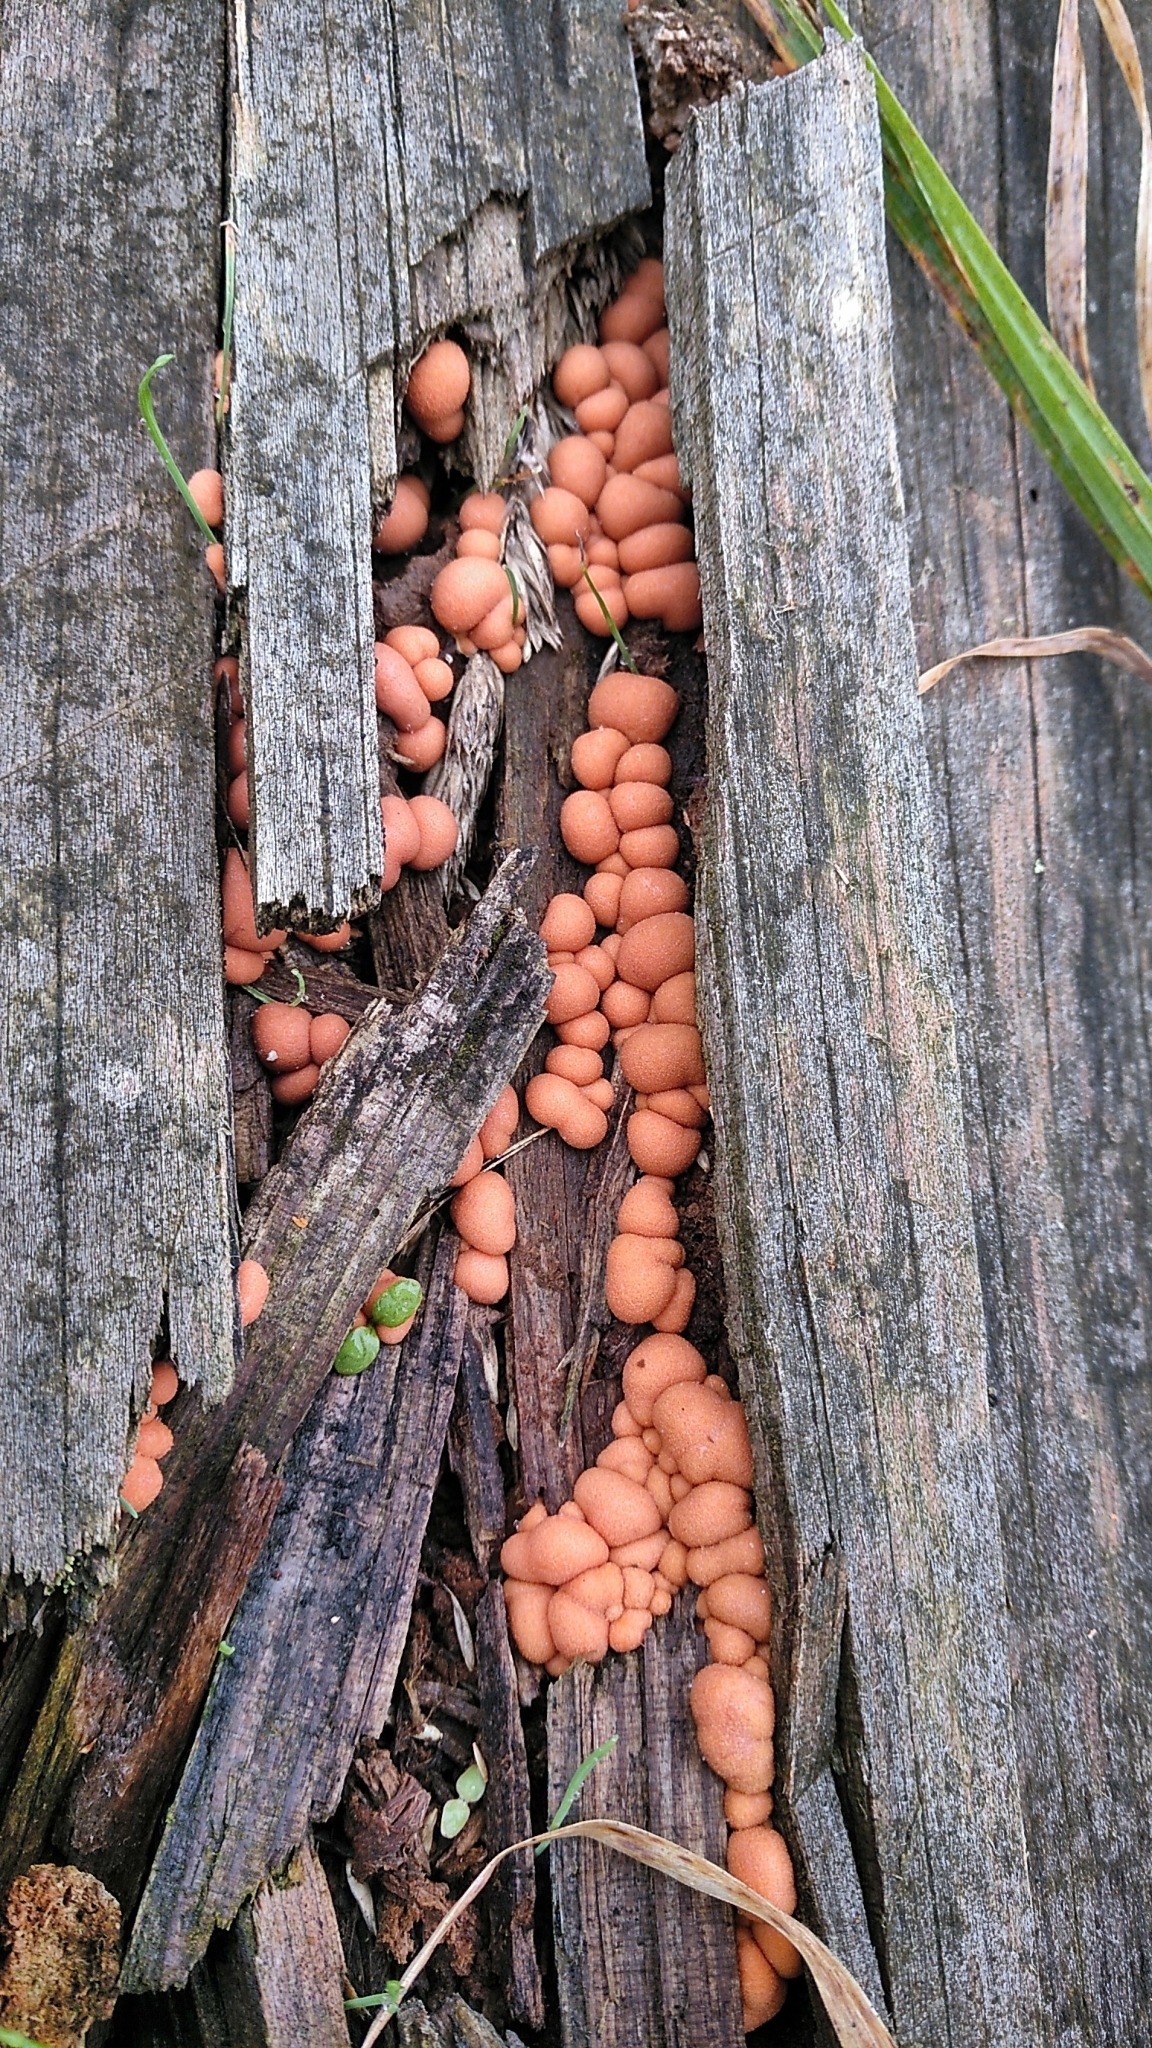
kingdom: Protozoa
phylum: Mycetozoa
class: Myxomycetes
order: Cribrariales
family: Tubiferaceae
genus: Lycogala
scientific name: Lycogala epidendrum
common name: Wolf's milk
